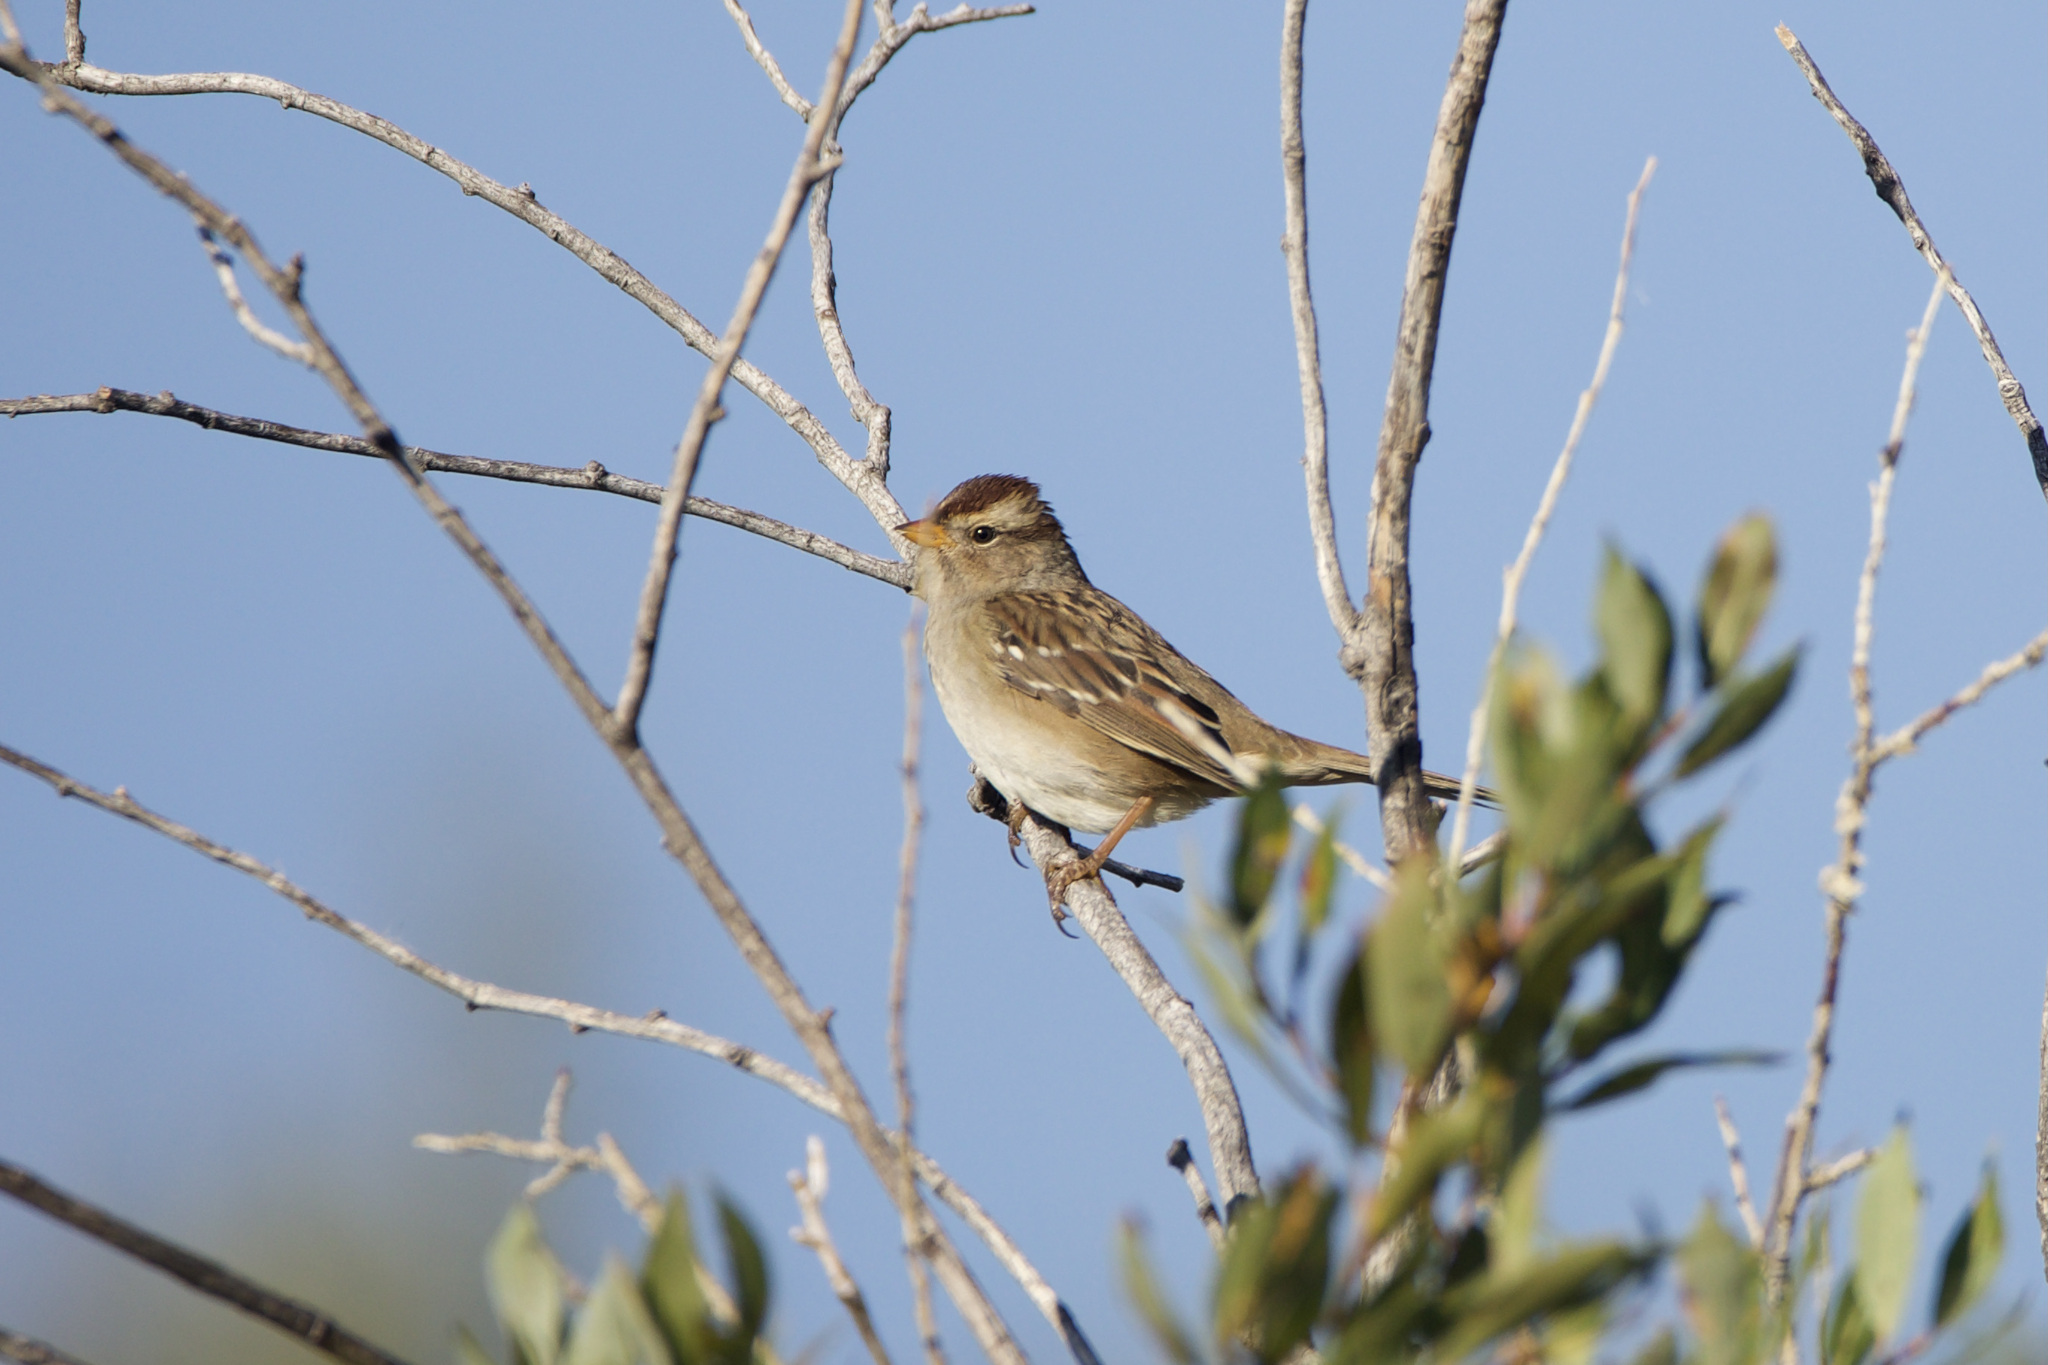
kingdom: Animalia
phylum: Chordata
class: Aves
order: Passeriformes
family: Passerellidae
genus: Zonotrichia
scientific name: Zonotrichia leucophrys
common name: White-crowned sparrow
